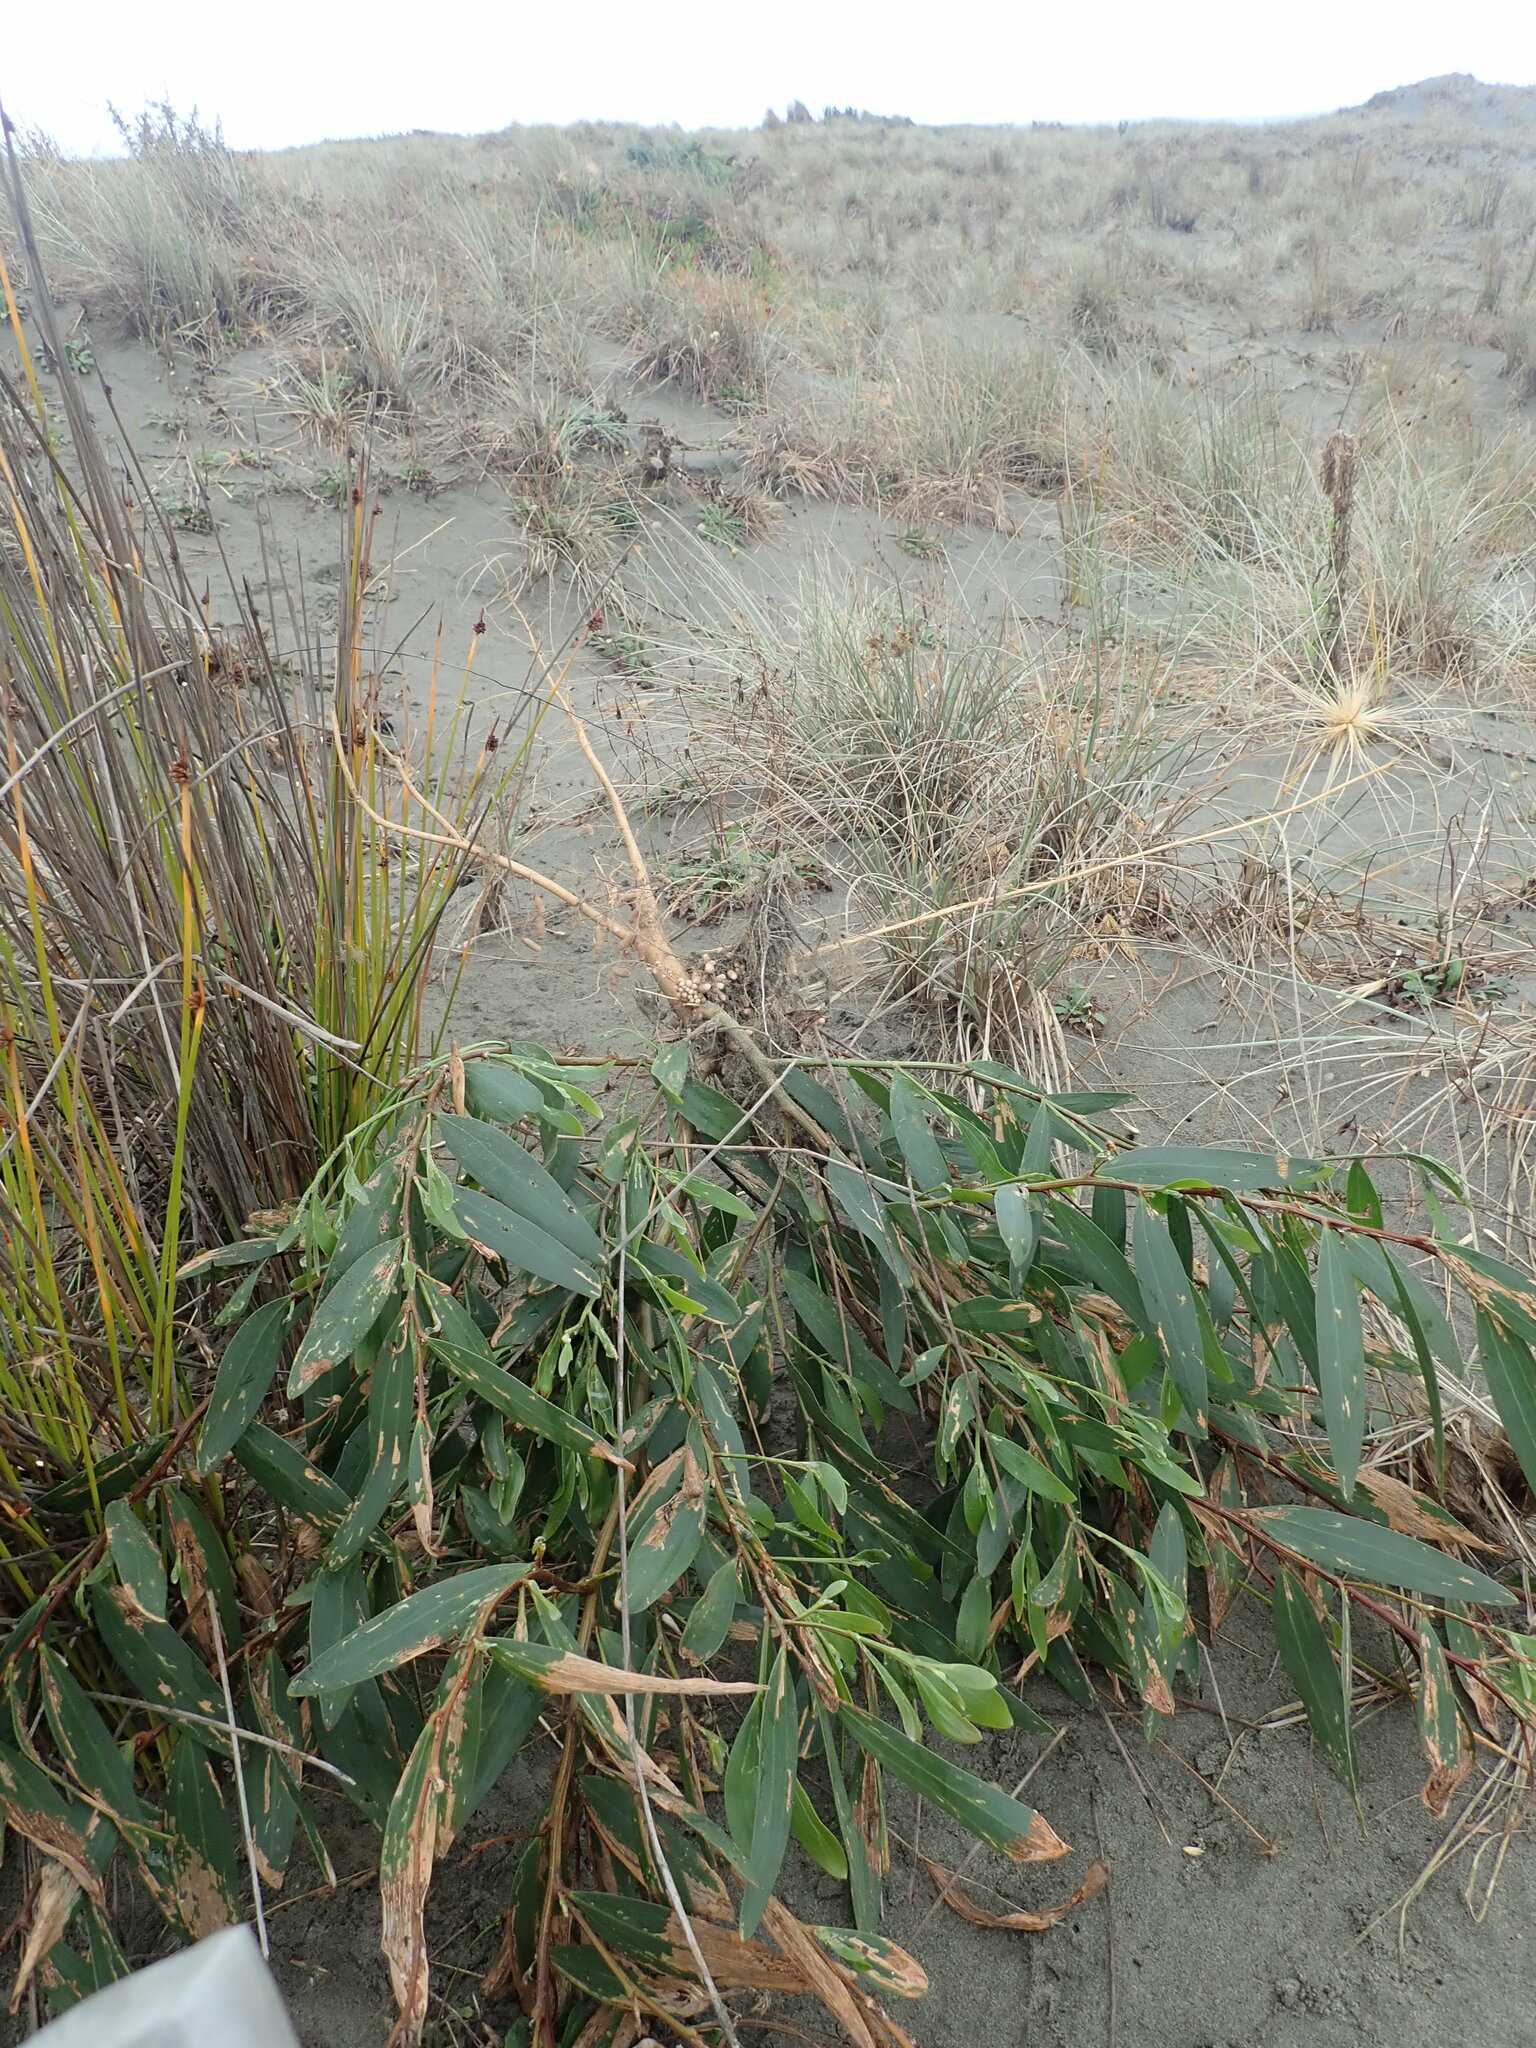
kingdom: Plantae
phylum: Tracheophyta
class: Magnoliopsida
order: Fabales
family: Fabaceae
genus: Acacia
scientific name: Acacia longifolia
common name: Sydney golden wattle
